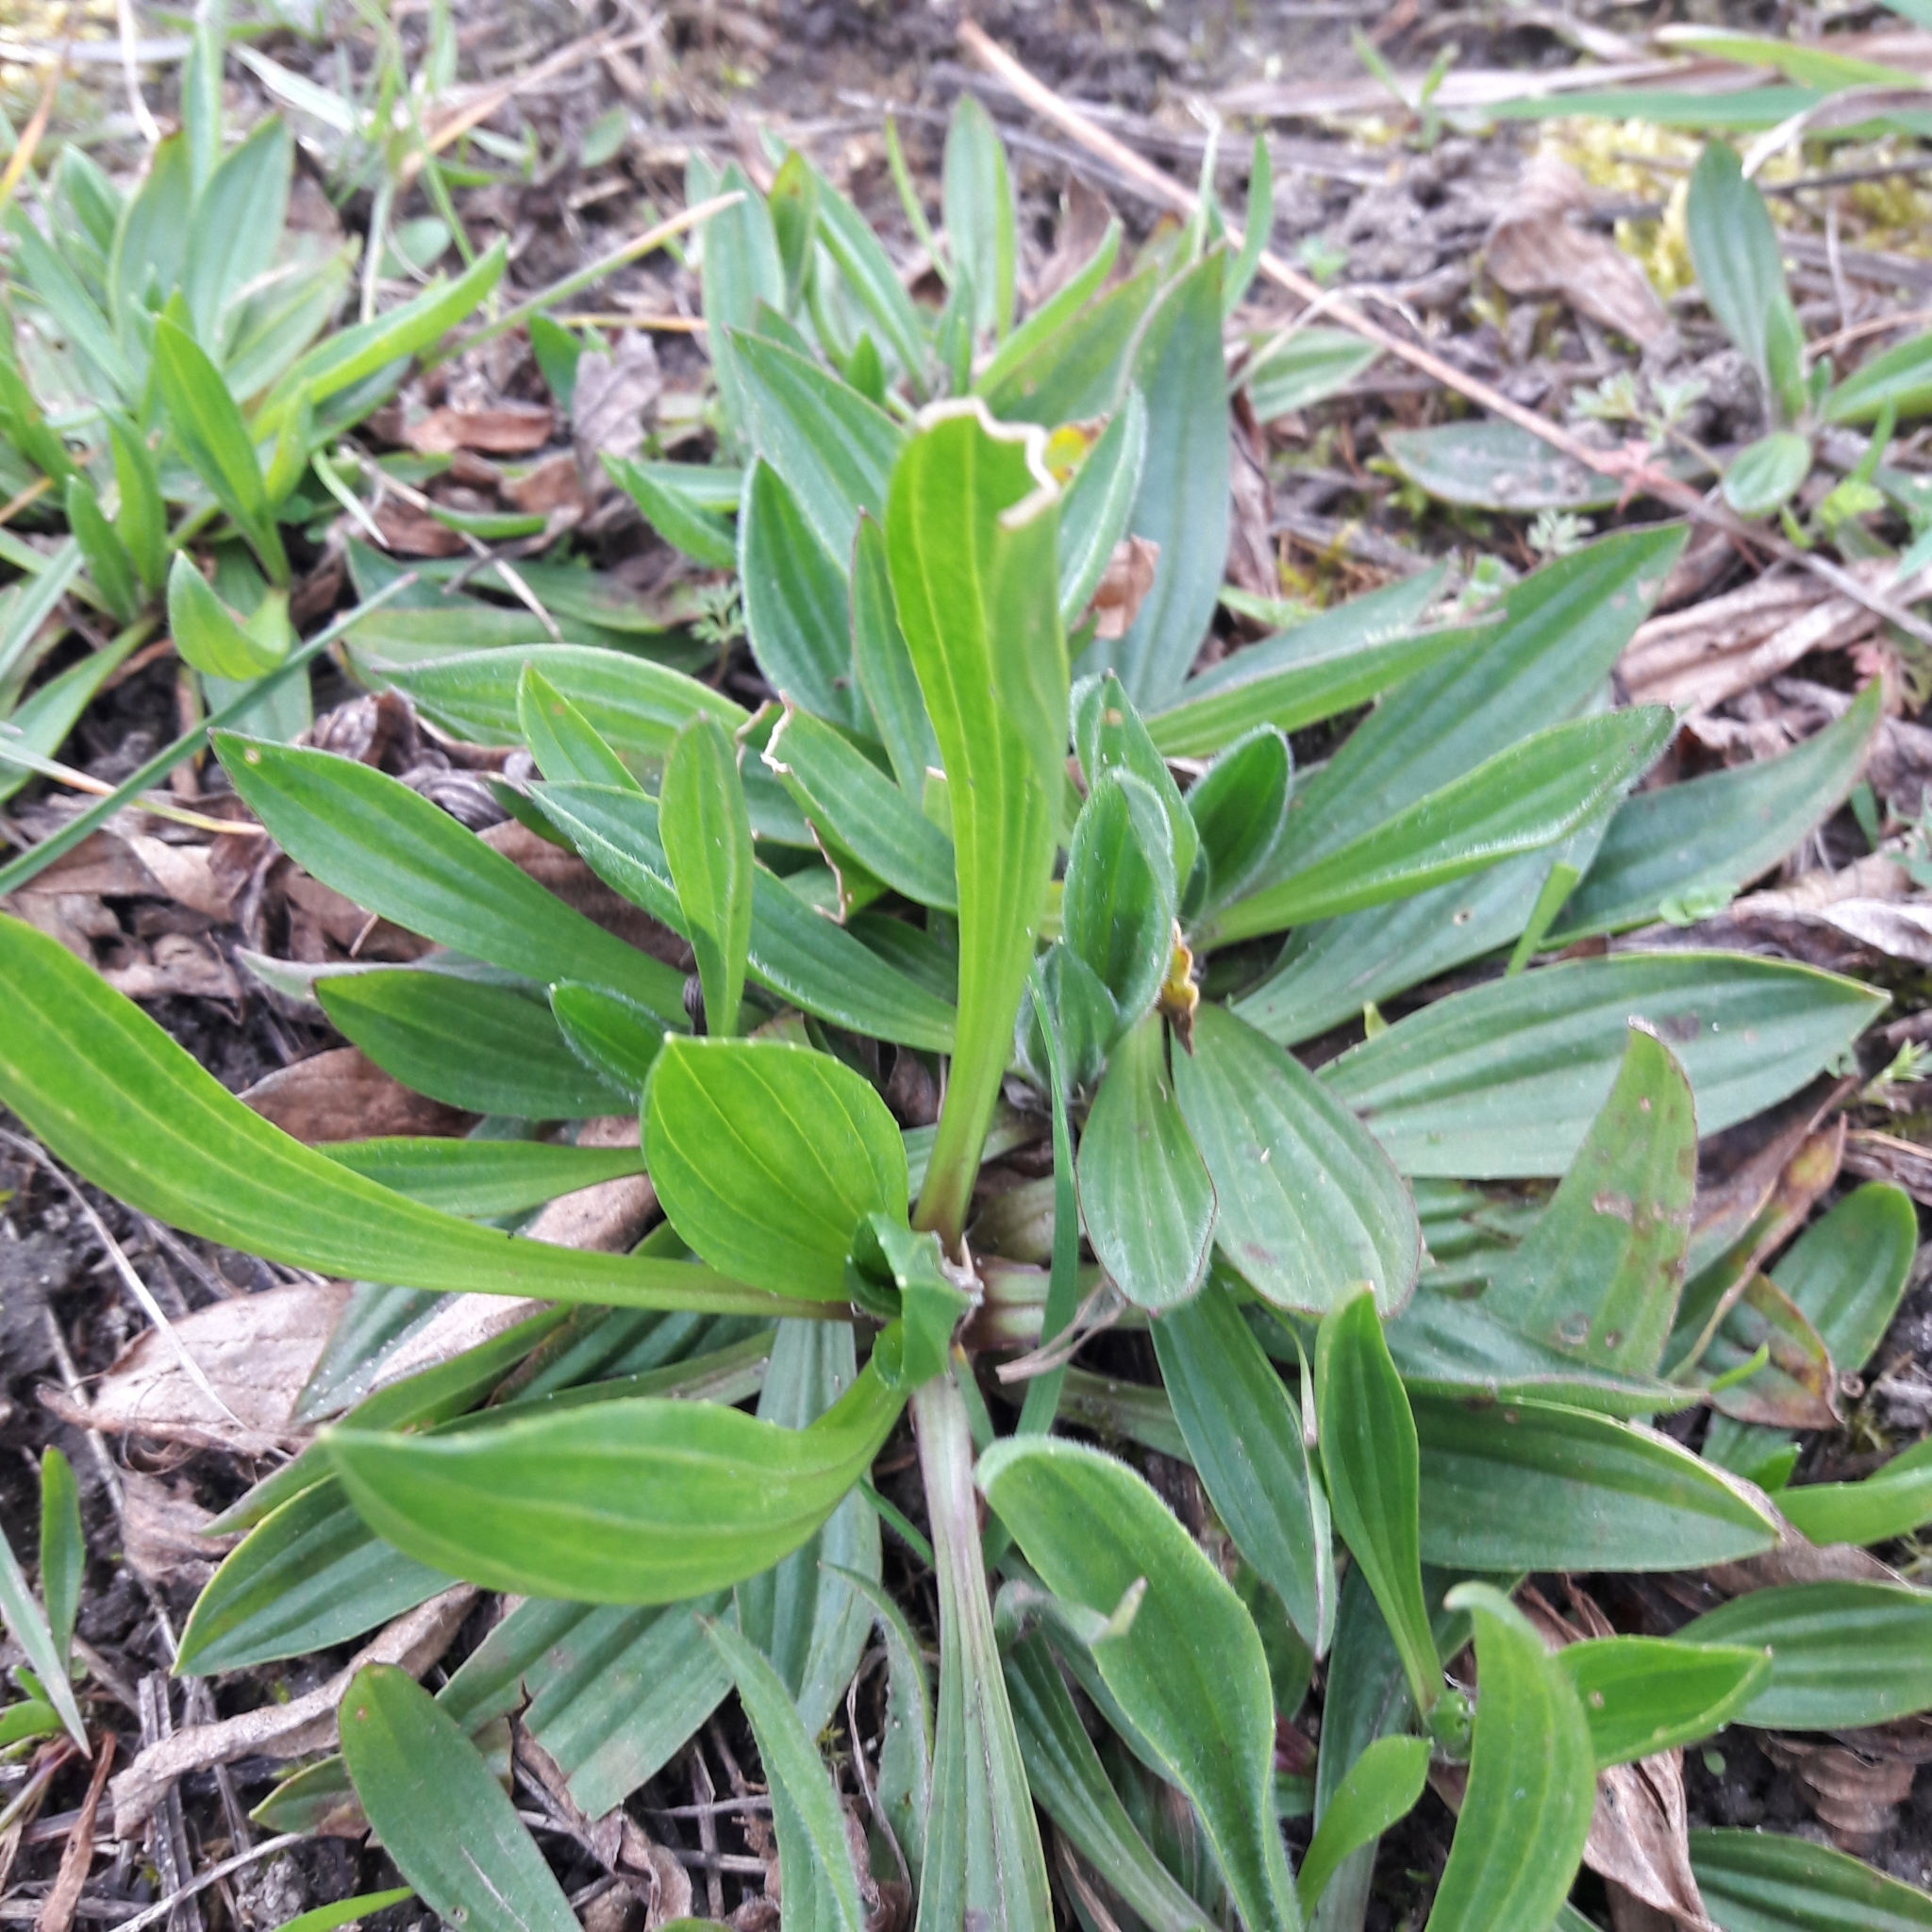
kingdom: Plantae
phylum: Tracheophyta
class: Magnoliopsida
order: Lamiales
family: Plantaginaceae
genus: Plantago
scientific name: Plantago lanceolata
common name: Ribwort plantain
